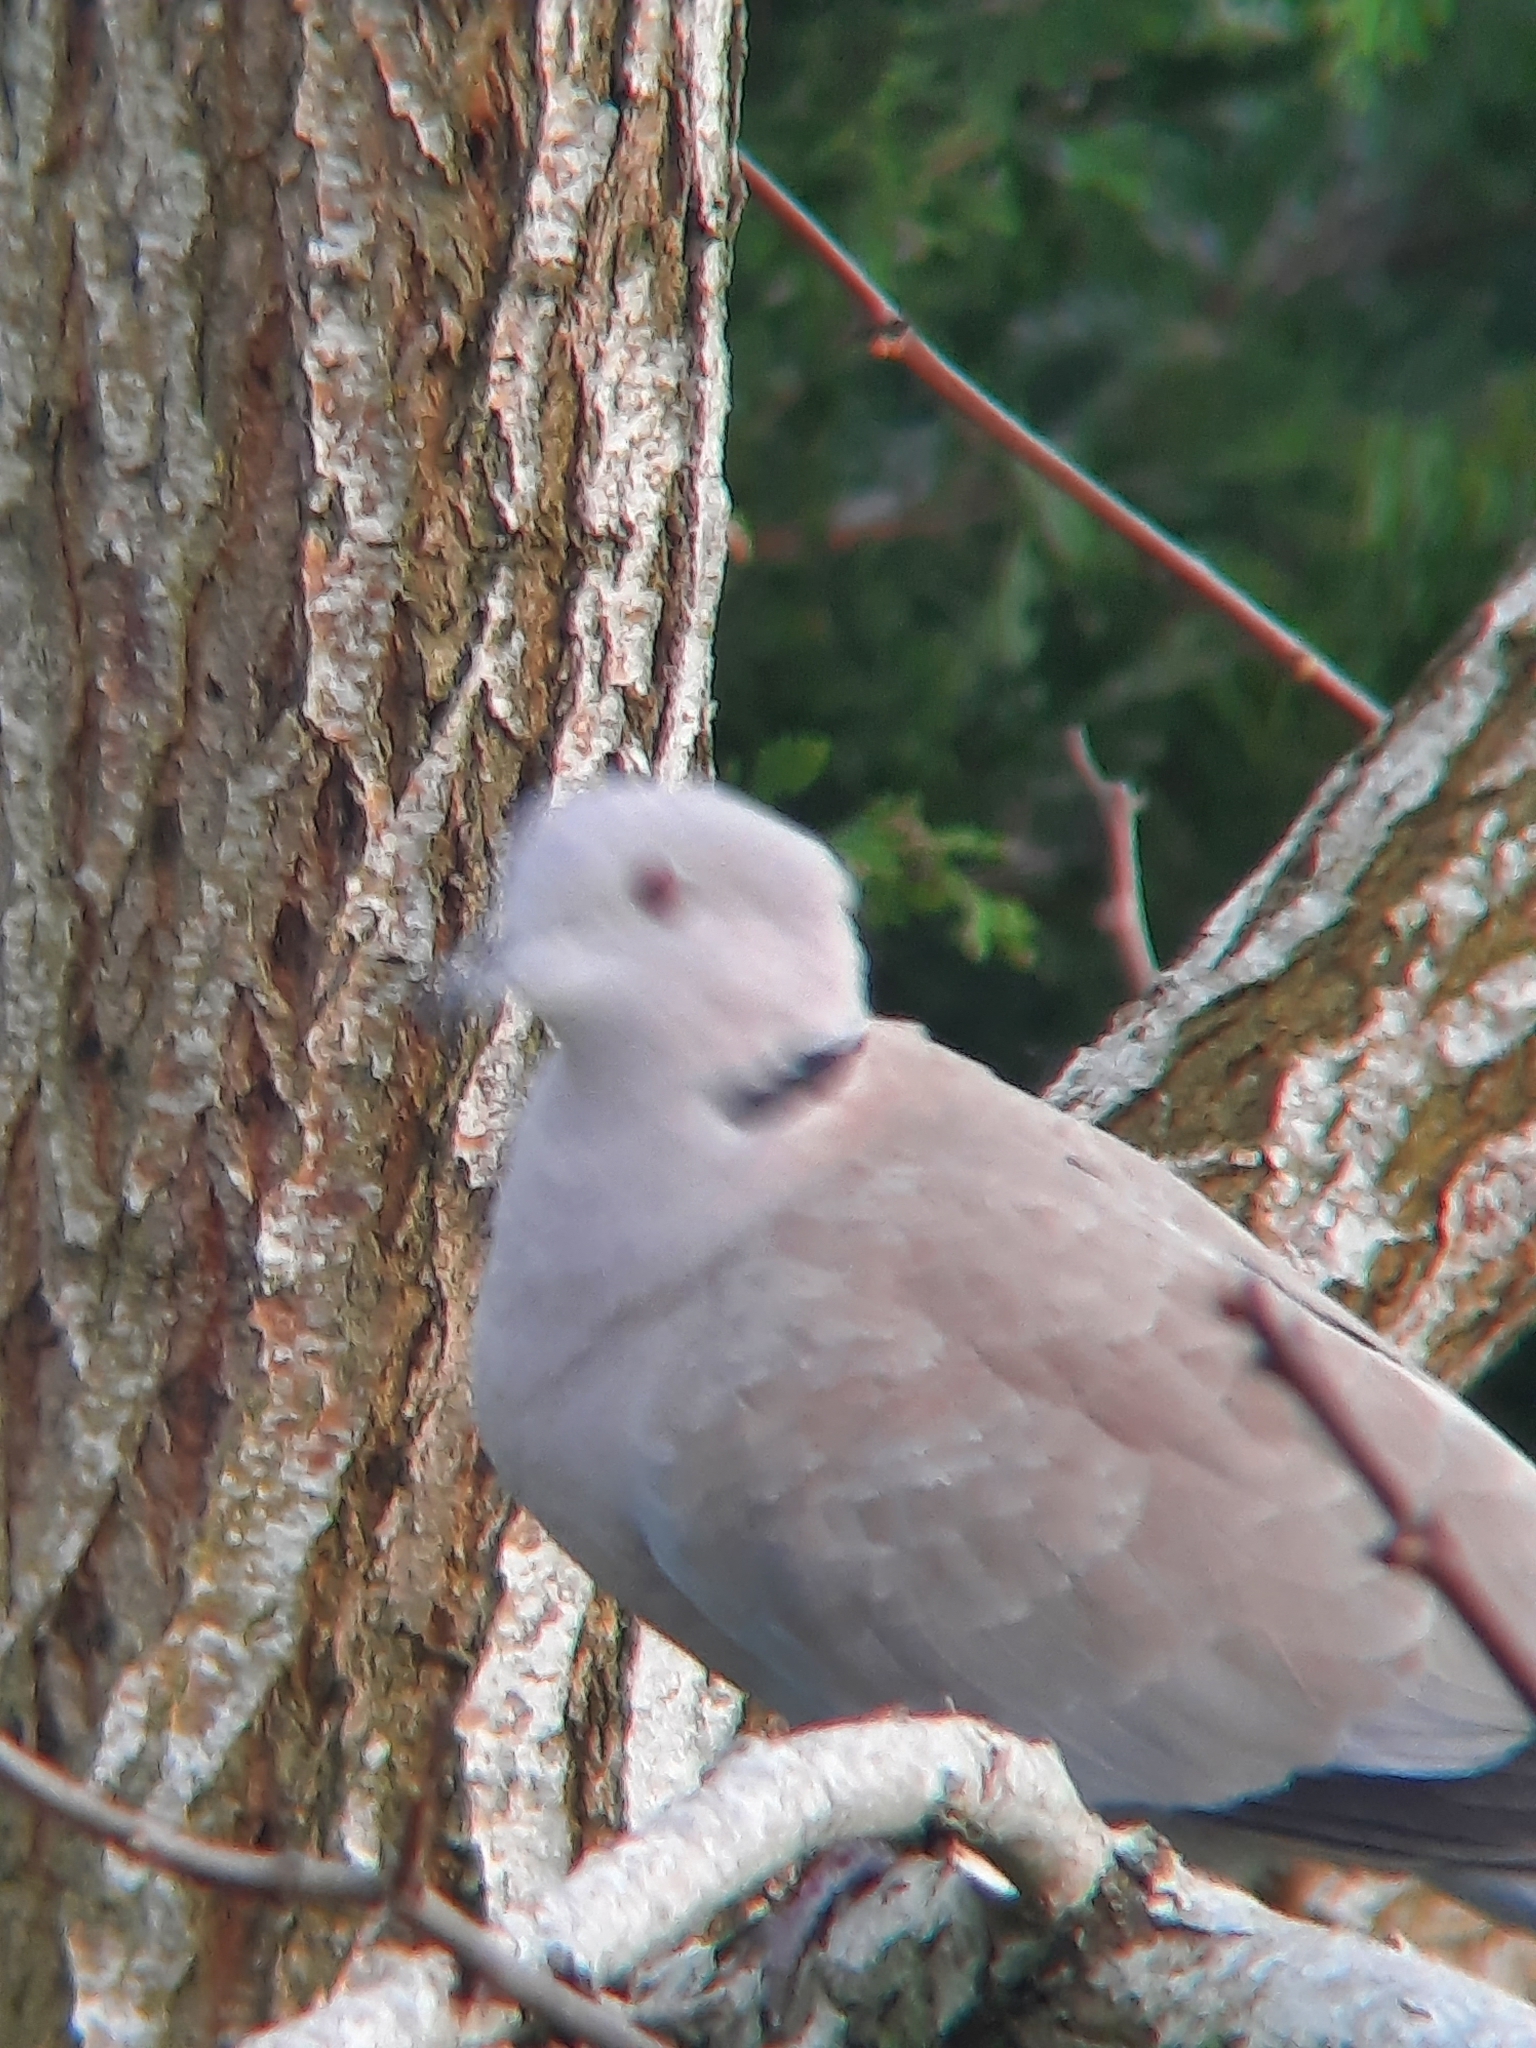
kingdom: Animalia
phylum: Chordata
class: Aves
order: Columbiformes
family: Columbidae
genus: Streptopelia
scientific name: Streptopelia decaocto
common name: Eurasian collared dove
